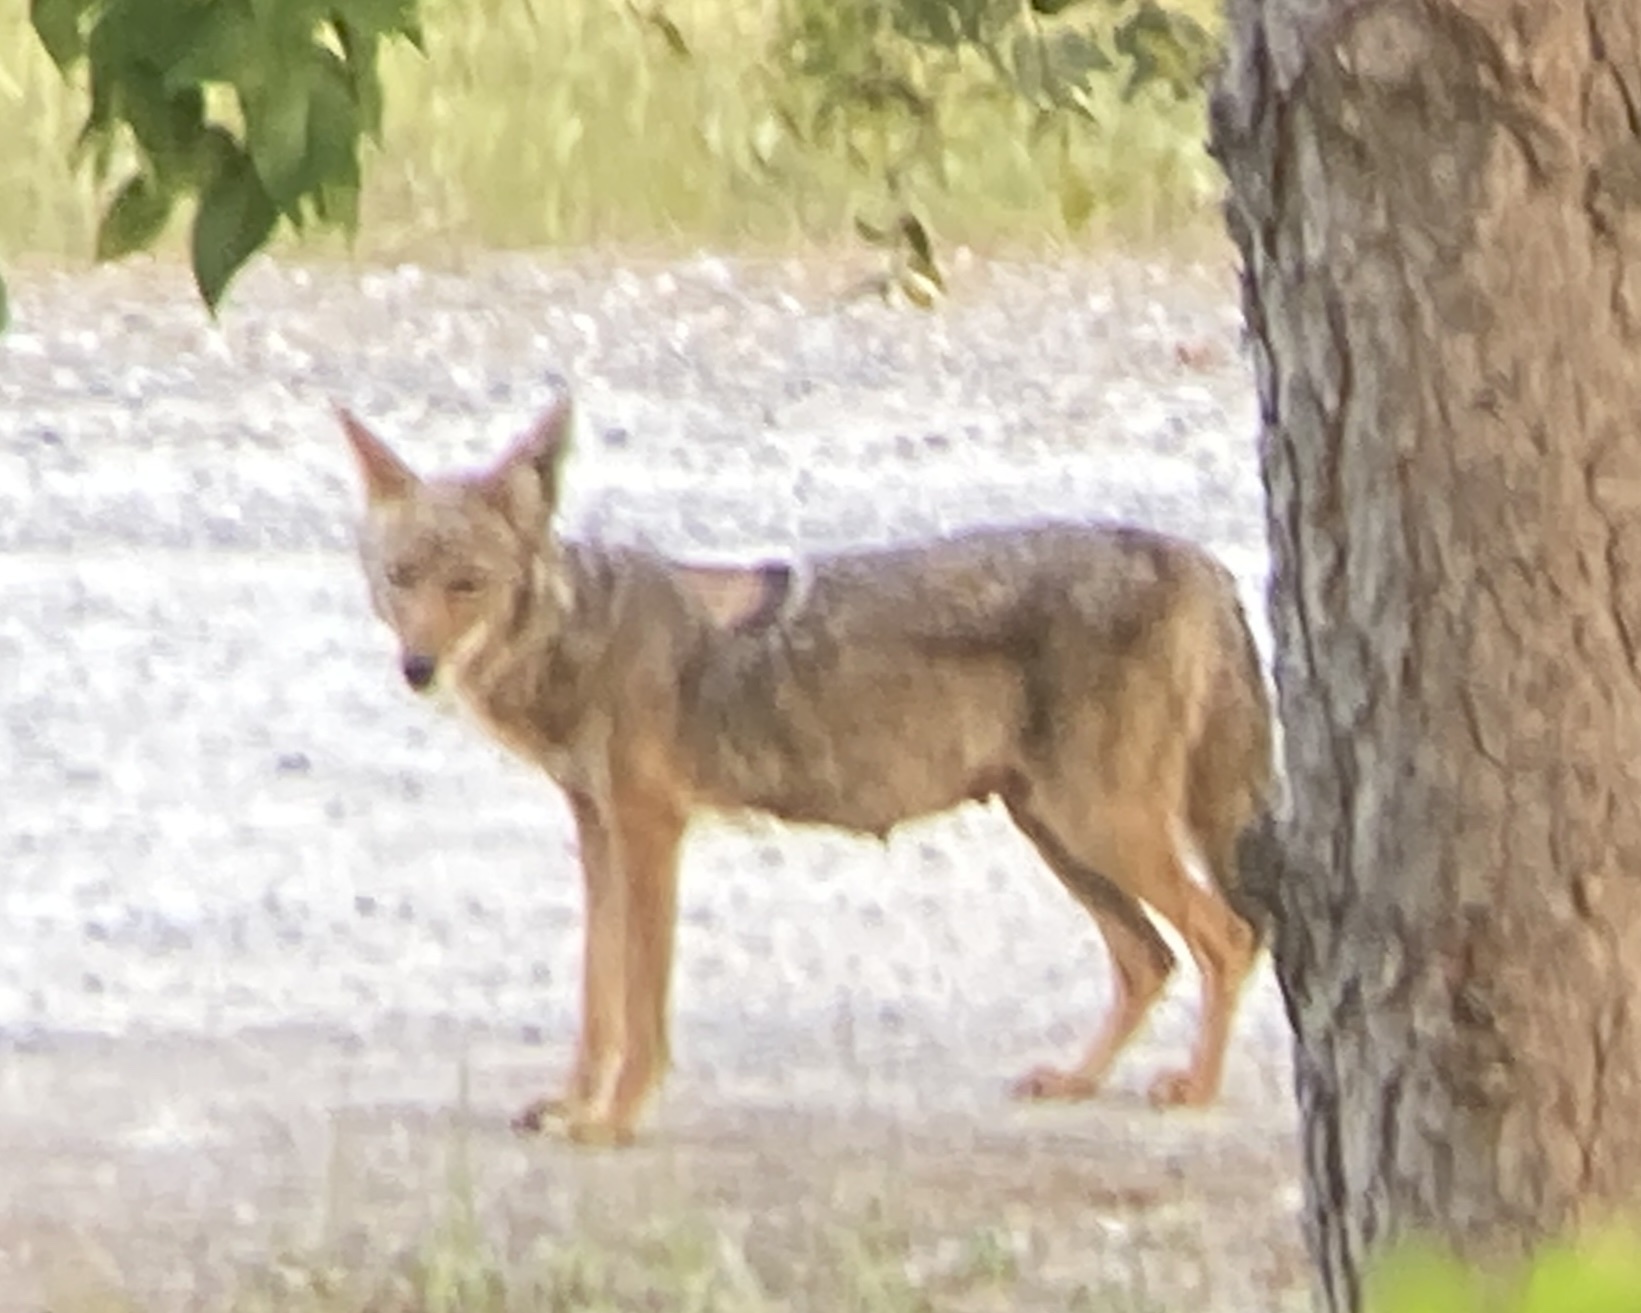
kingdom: Animalia
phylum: Chordata
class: Mammalia
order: Carnivora
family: Canidae
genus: Canis
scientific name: Canis latrans
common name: Coyote
